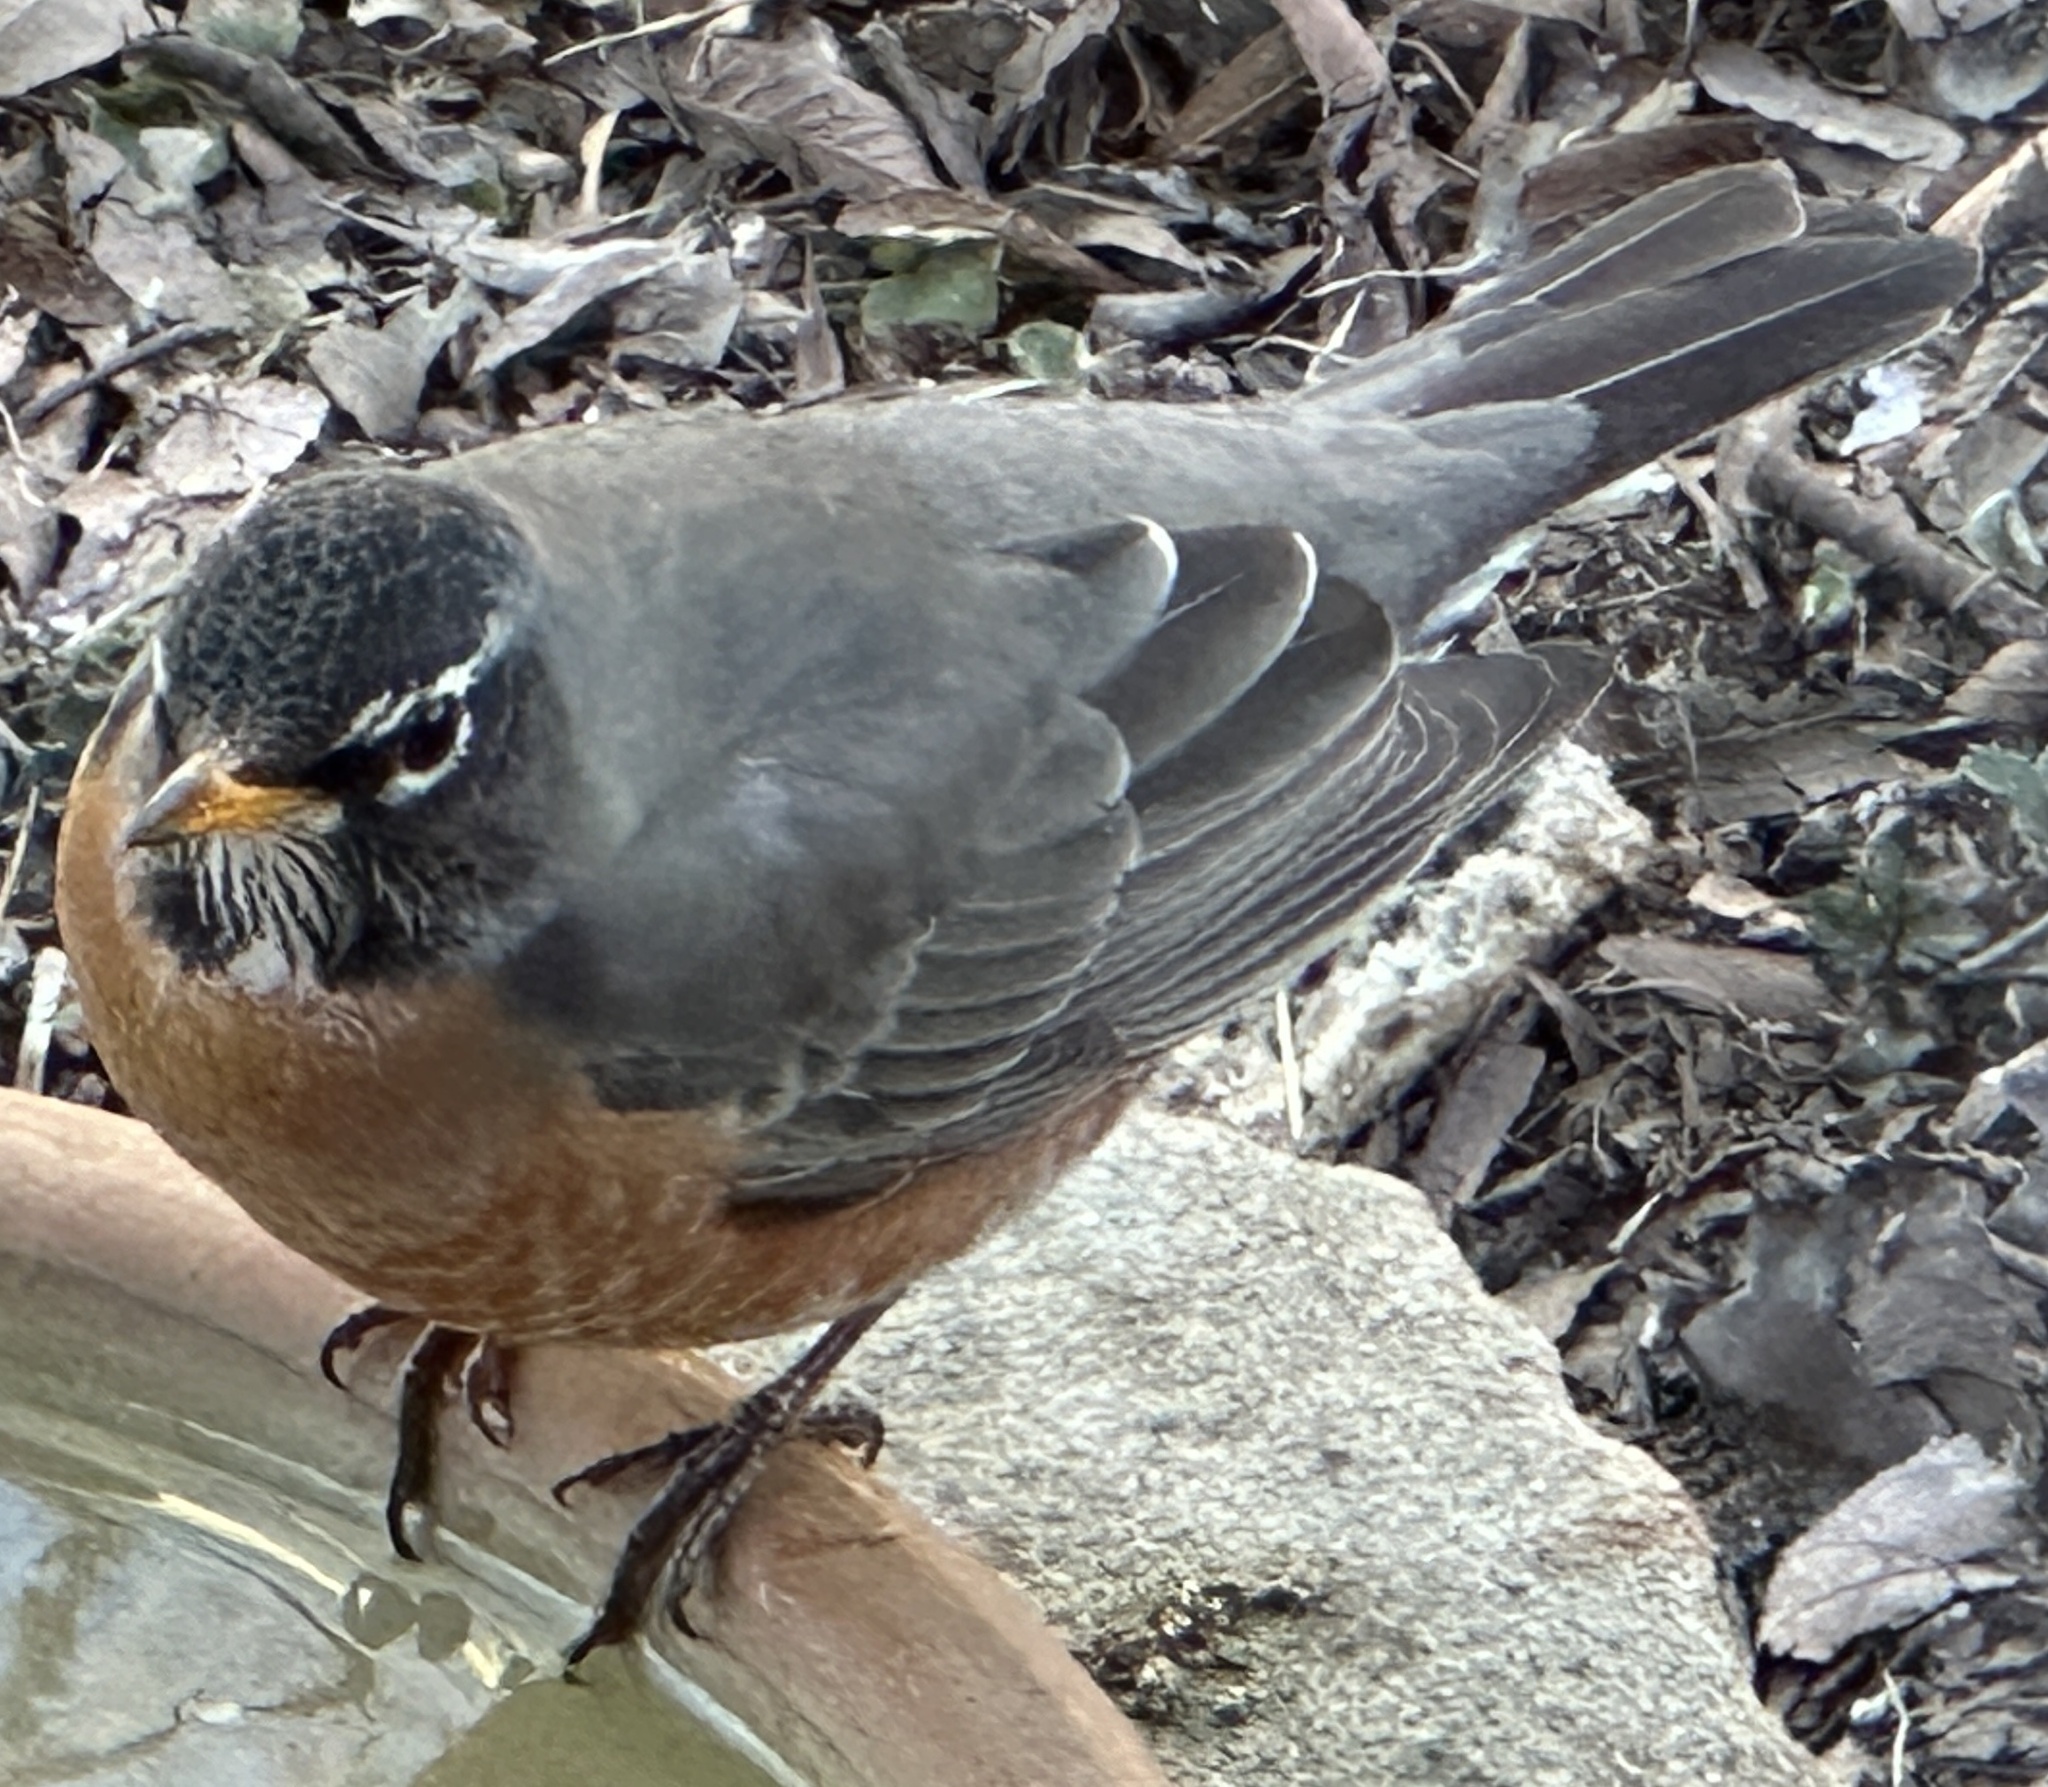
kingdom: Animalia
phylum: Chordata
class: Aves
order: Passeriformes
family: Turdidae
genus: Turdus
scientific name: Turdus migratorius
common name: American robin
